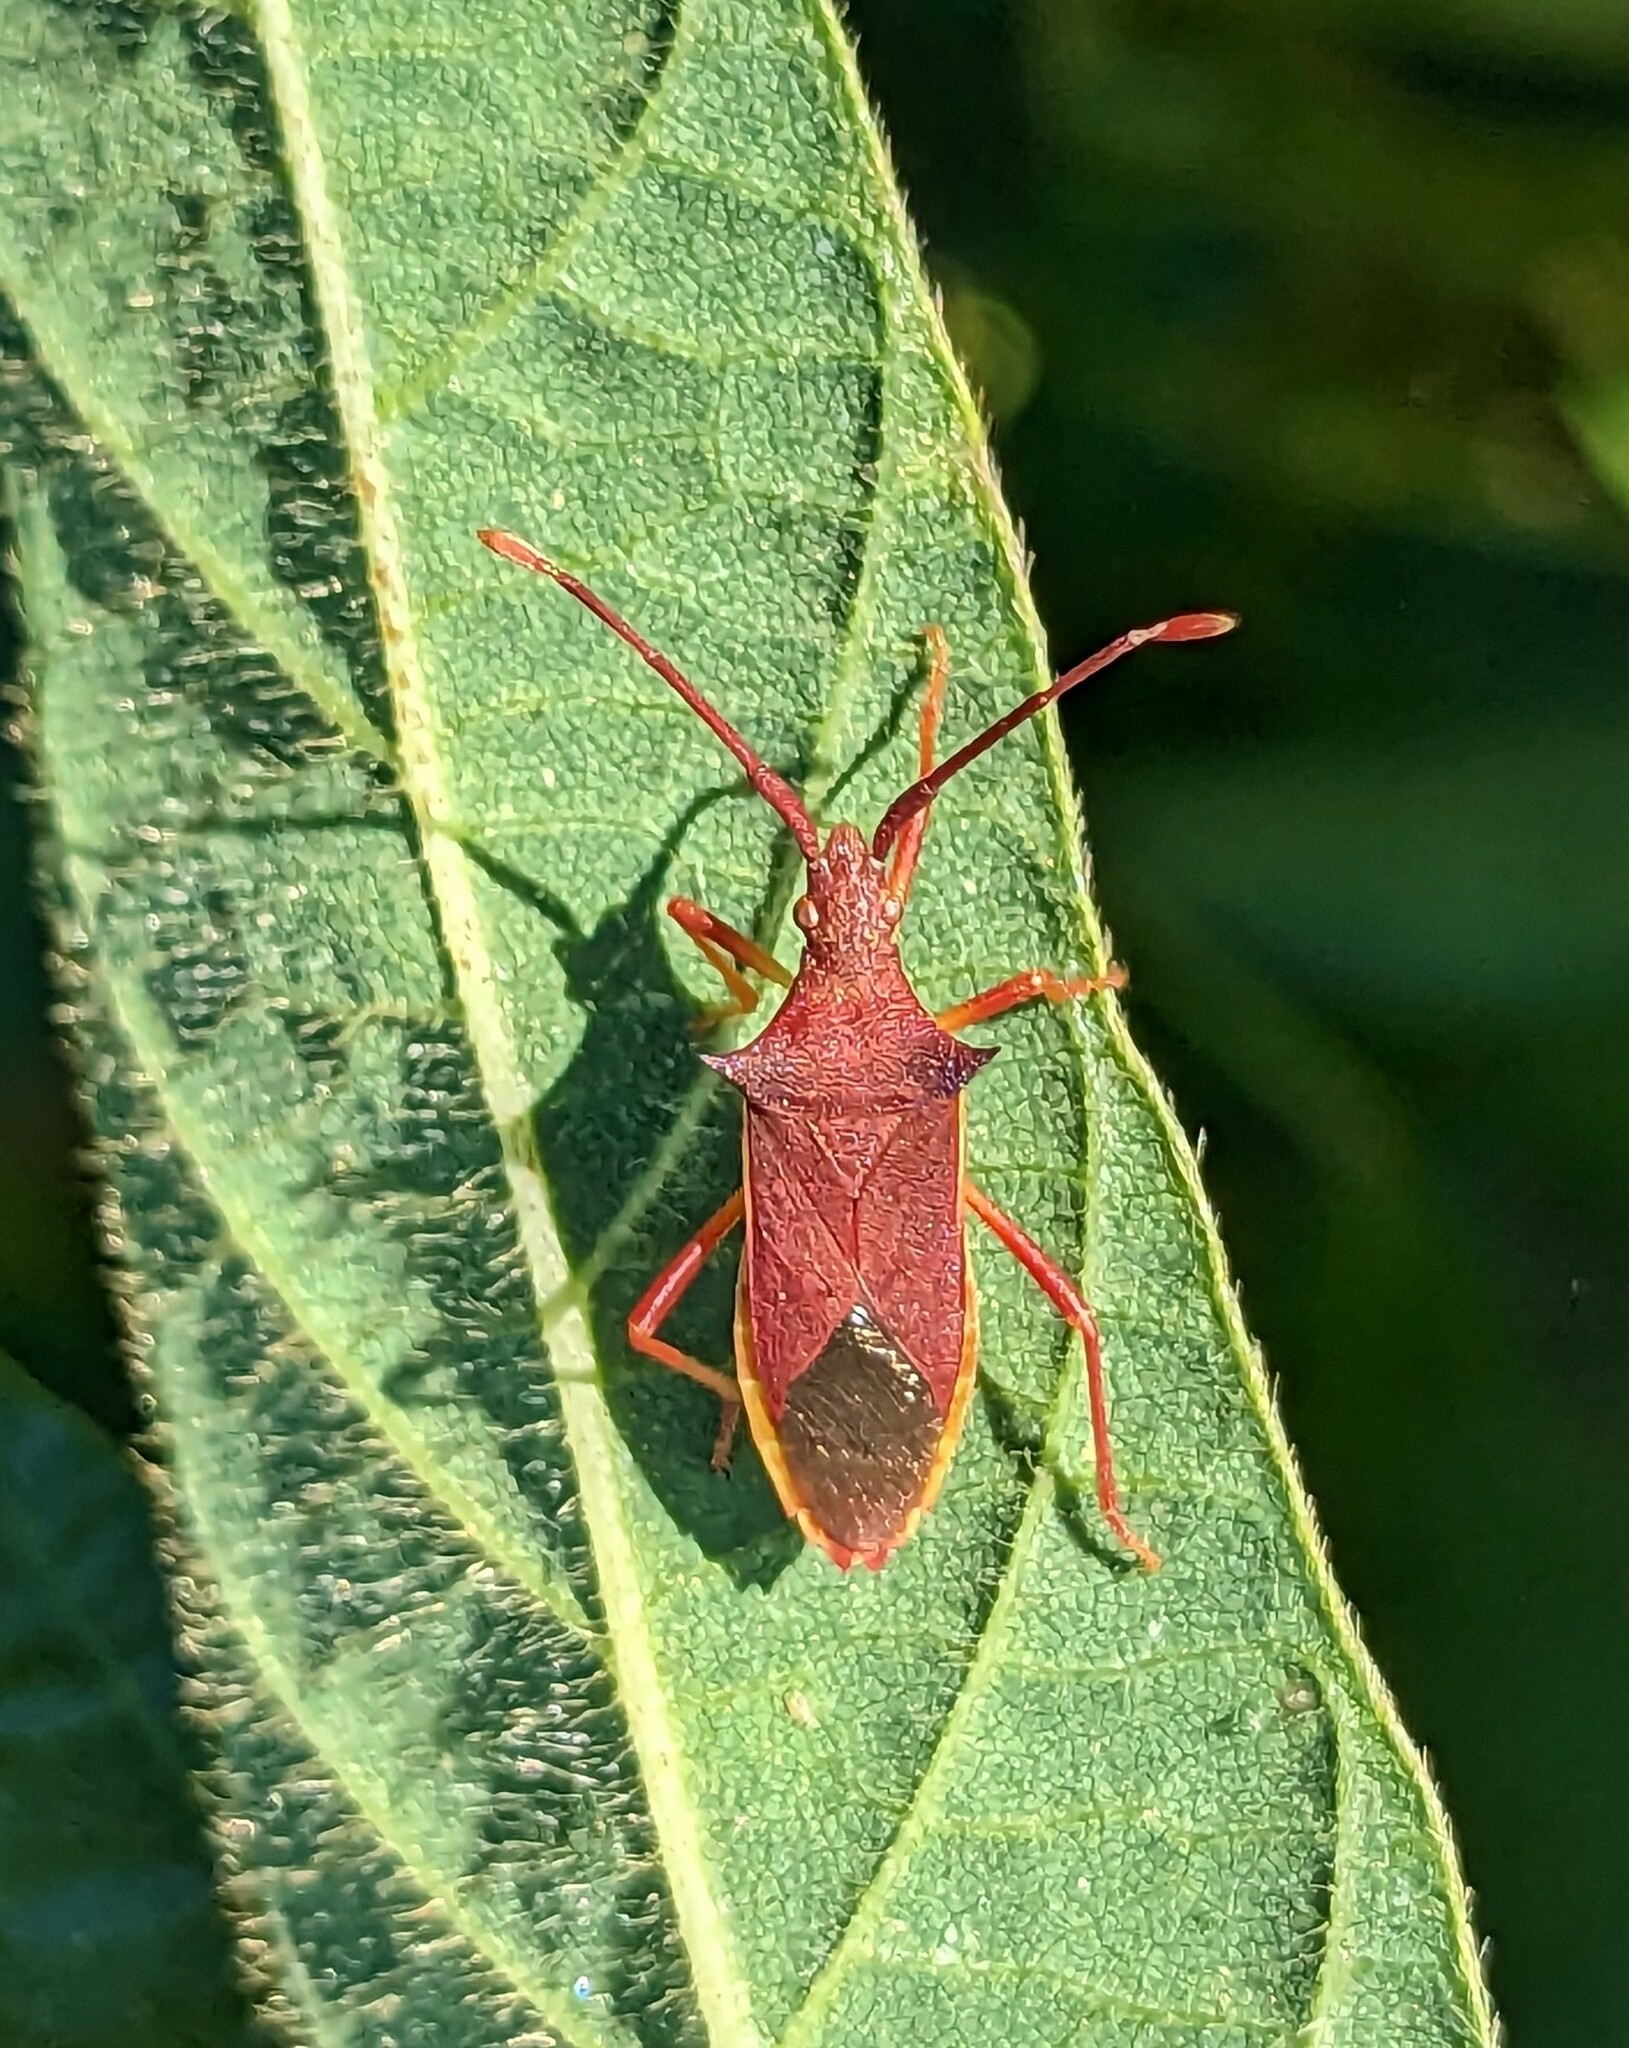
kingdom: Animalia
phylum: Arthropoda
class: Insecta
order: Hemiptera
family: Coreidae
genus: Gonocerus
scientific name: Gonocerus insidiator
